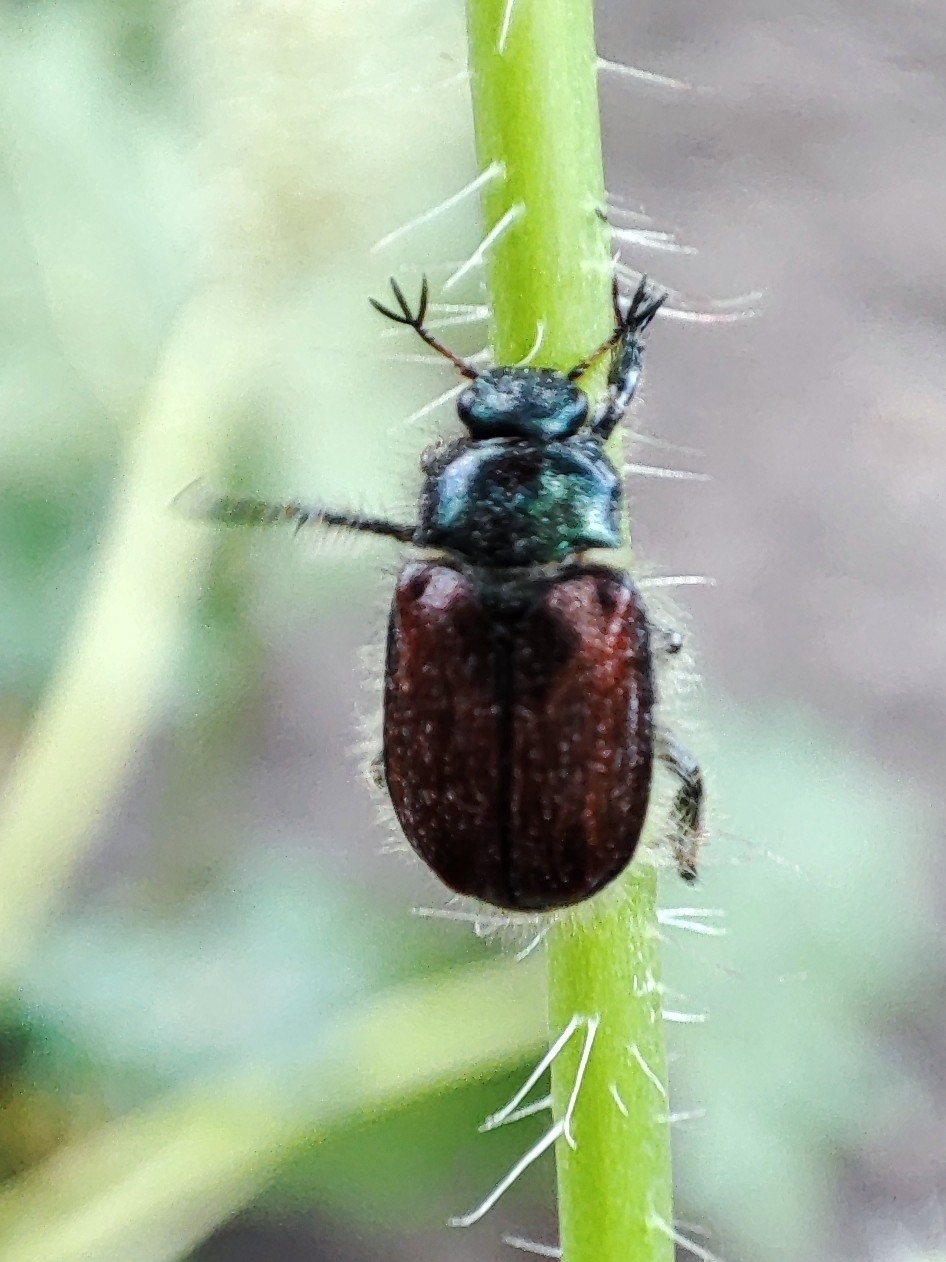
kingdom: Animalia
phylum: Arthropoda
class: Insecta
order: Coleoptera
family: Scarabaeidae
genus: Phyllopertha
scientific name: Phyllopertha horticola
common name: Garden chafer
